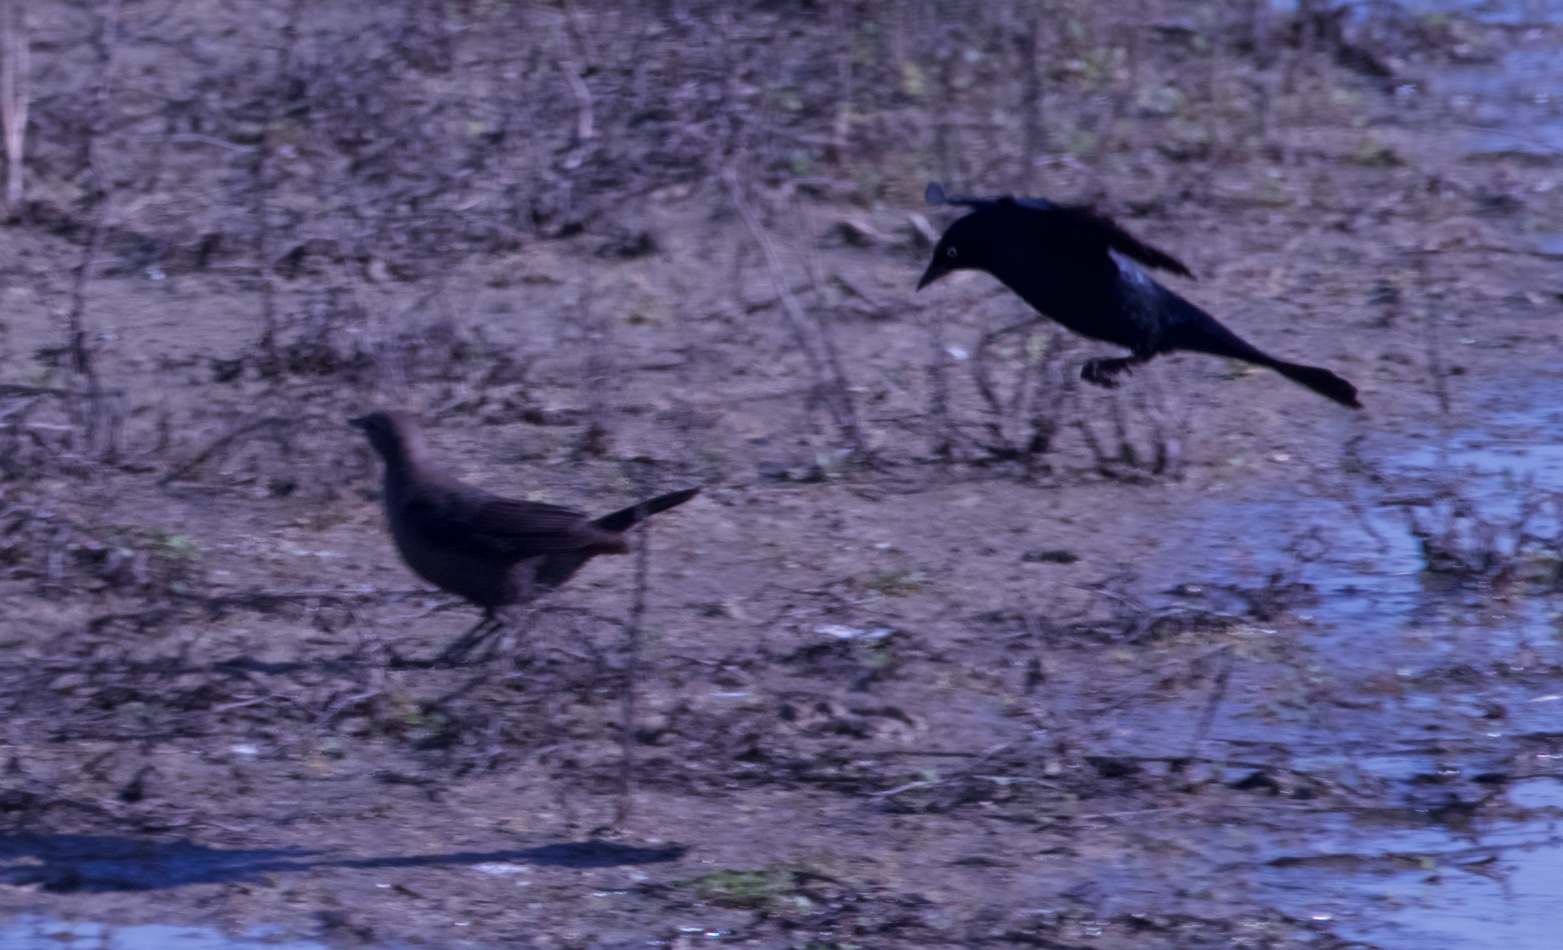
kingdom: Animalia
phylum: Chordata
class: Aves
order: Passeriformes
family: Icteridae
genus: Euphagus
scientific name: Euphagus cyanocephalus
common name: Brewer's blackbird
